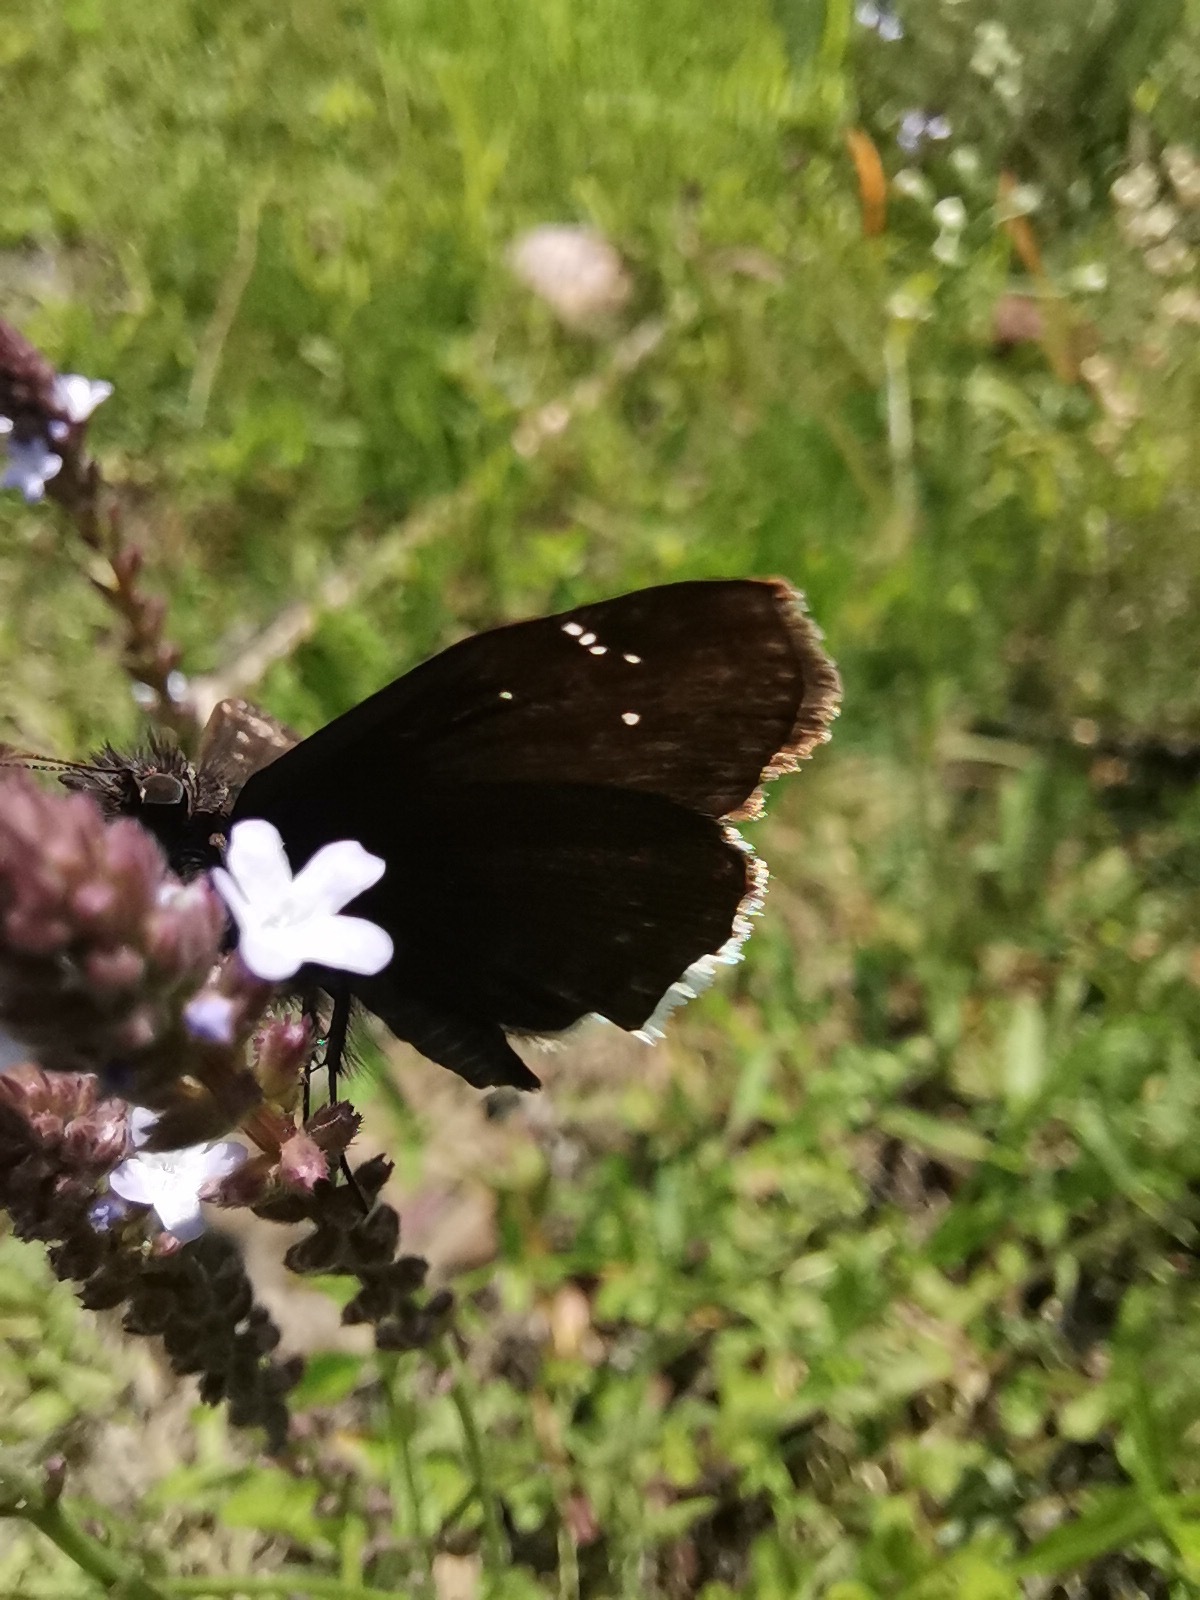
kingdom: Animalia
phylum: Arthropoda
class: Insecta
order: Lepidoptera
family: Hesperiidae
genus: Erynnis
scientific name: Erynnis funeralis
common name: Funereal duskywing
